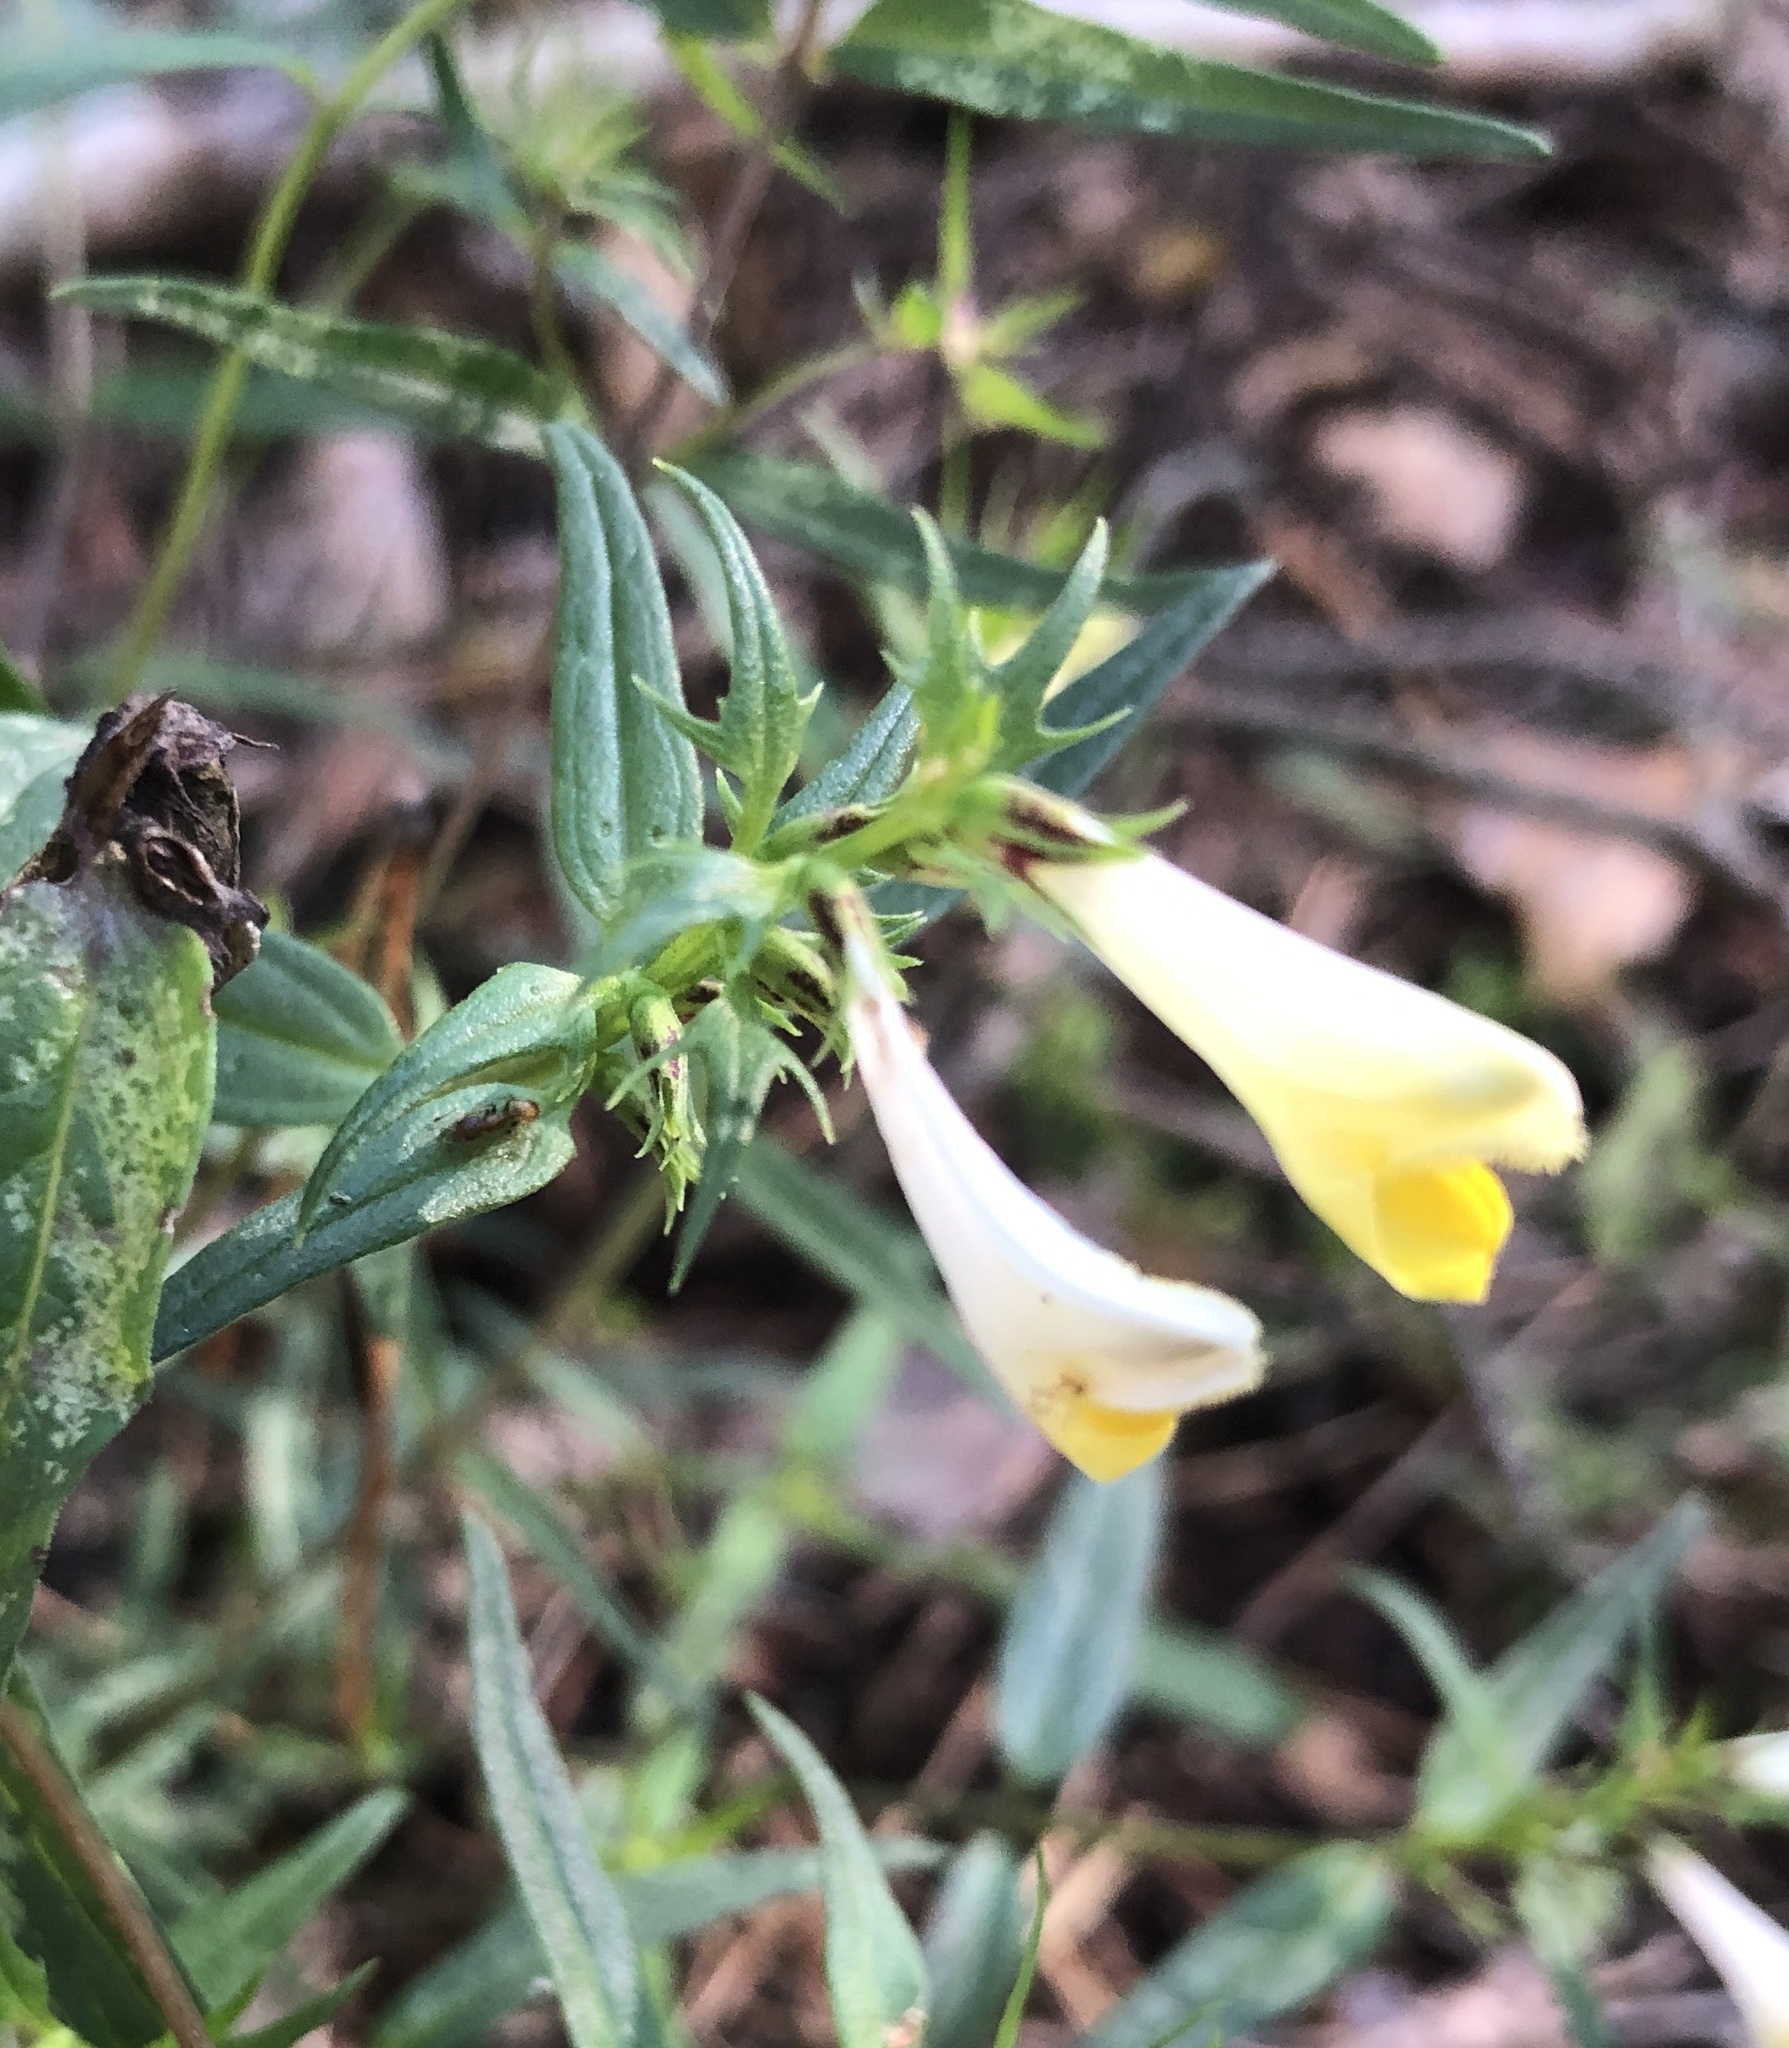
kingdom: Plantae
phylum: Tracheophyta
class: Magnoliopsida
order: Lamiales
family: Orobanchaceae
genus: Melampyrum
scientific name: Melampyrum pratense
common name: Common cow-wheat
